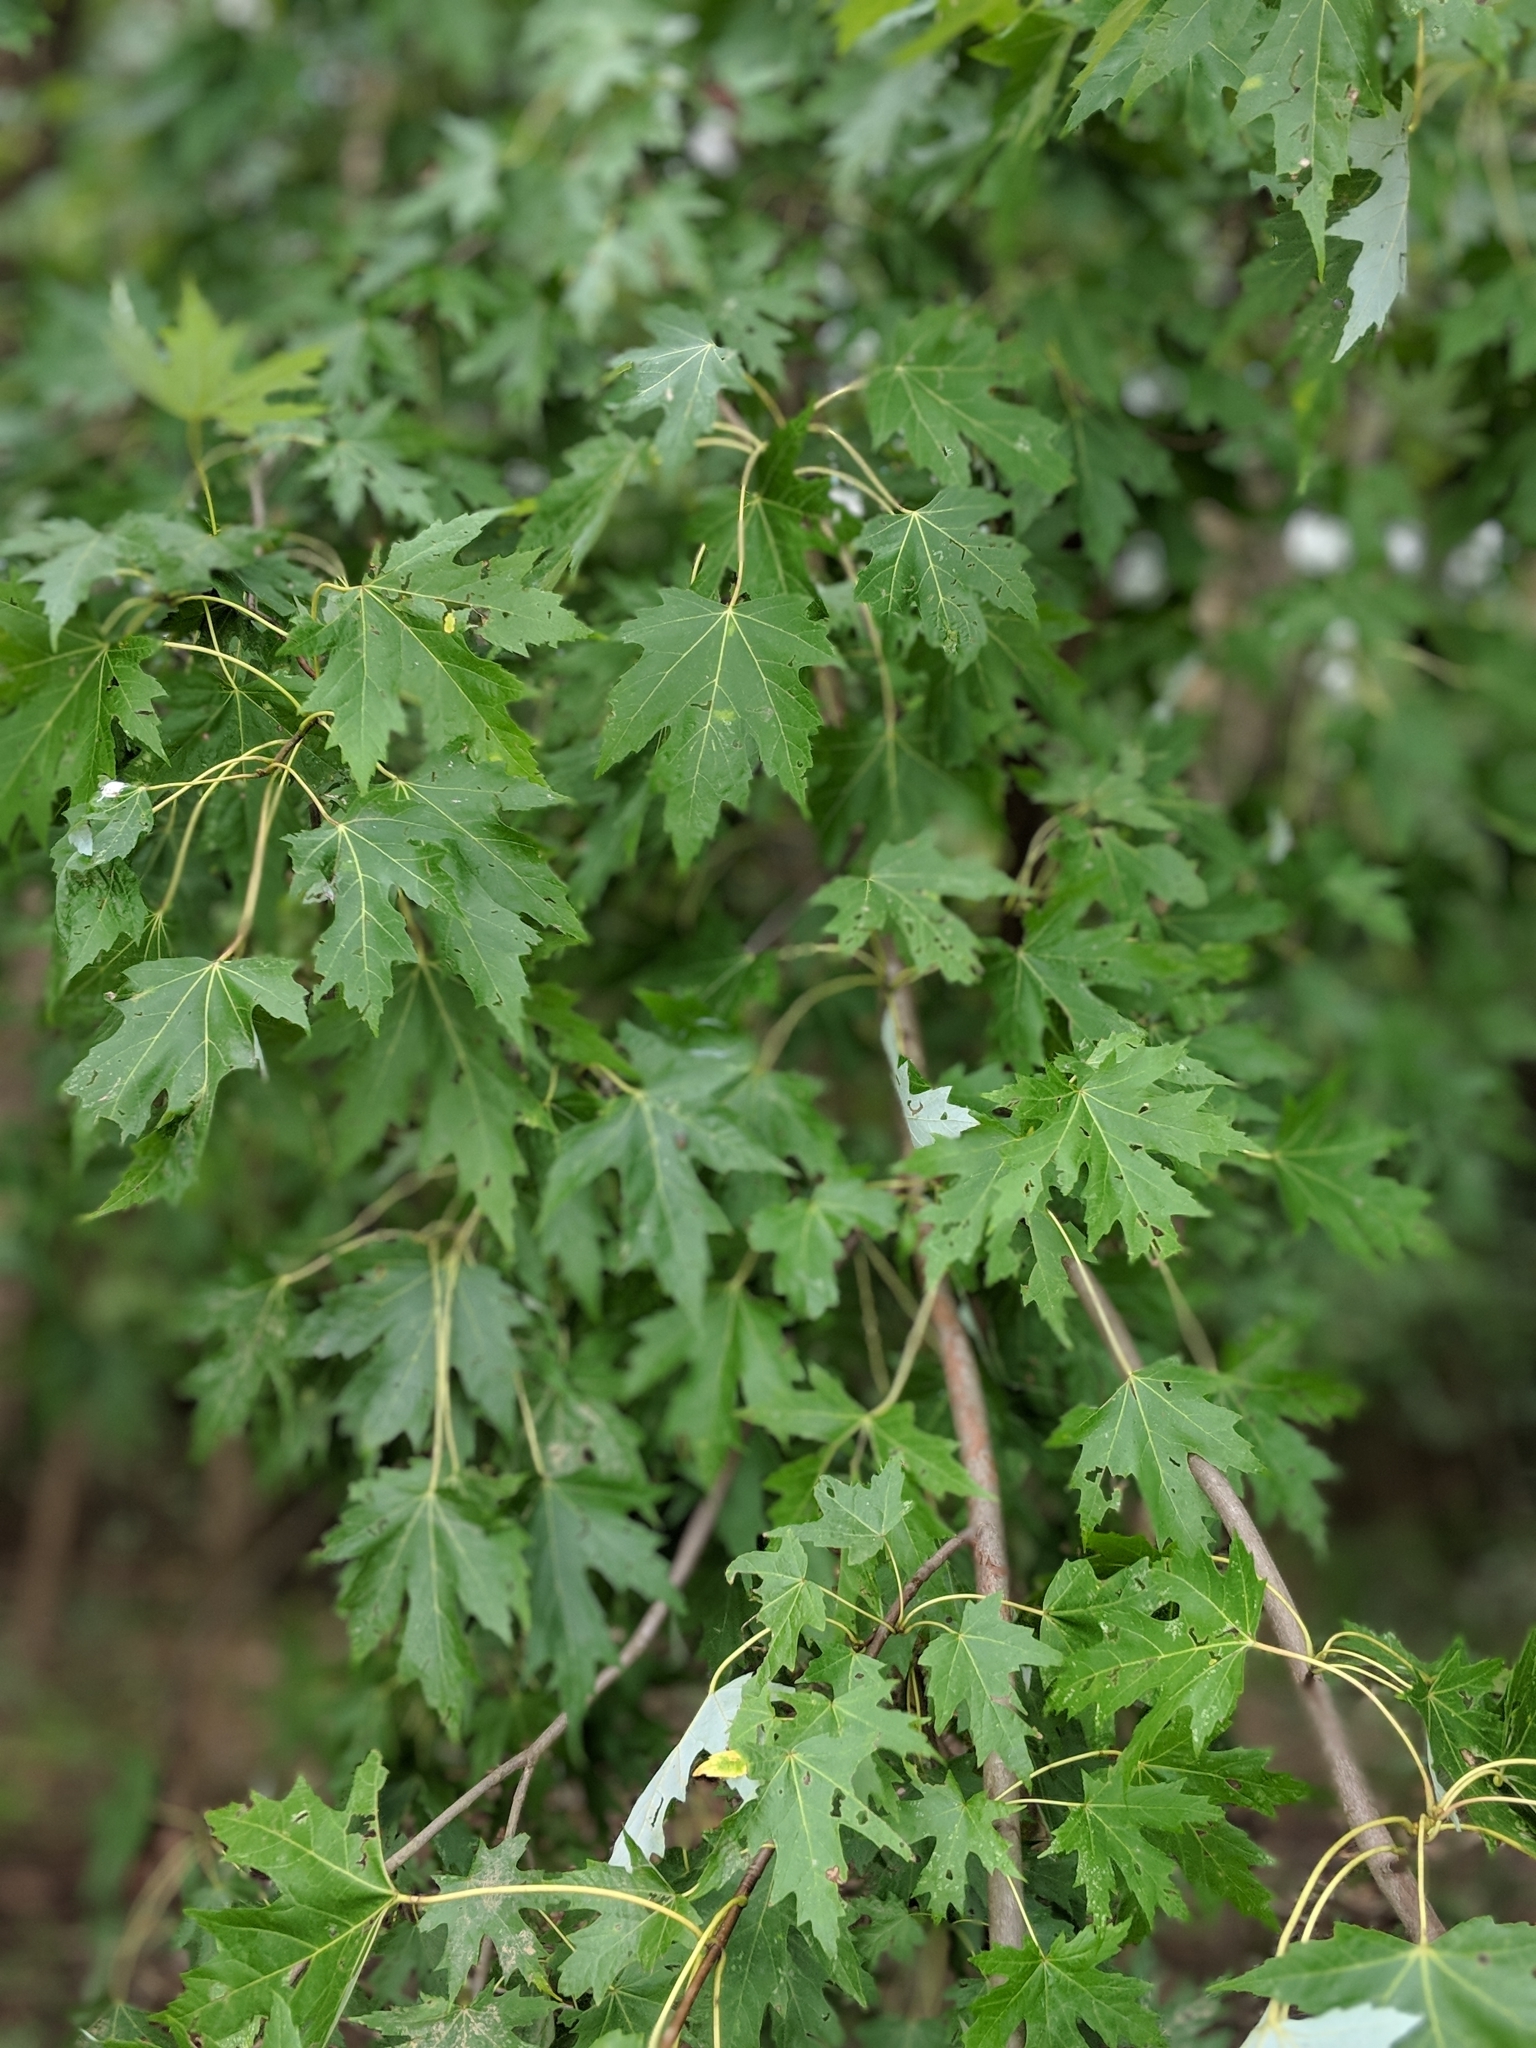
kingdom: Plantae
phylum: Tracheophyta
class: Magnoliopsida
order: Sapindales
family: Sapindaceae
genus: Acer
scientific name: Acer saccharinum
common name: Silver maple
